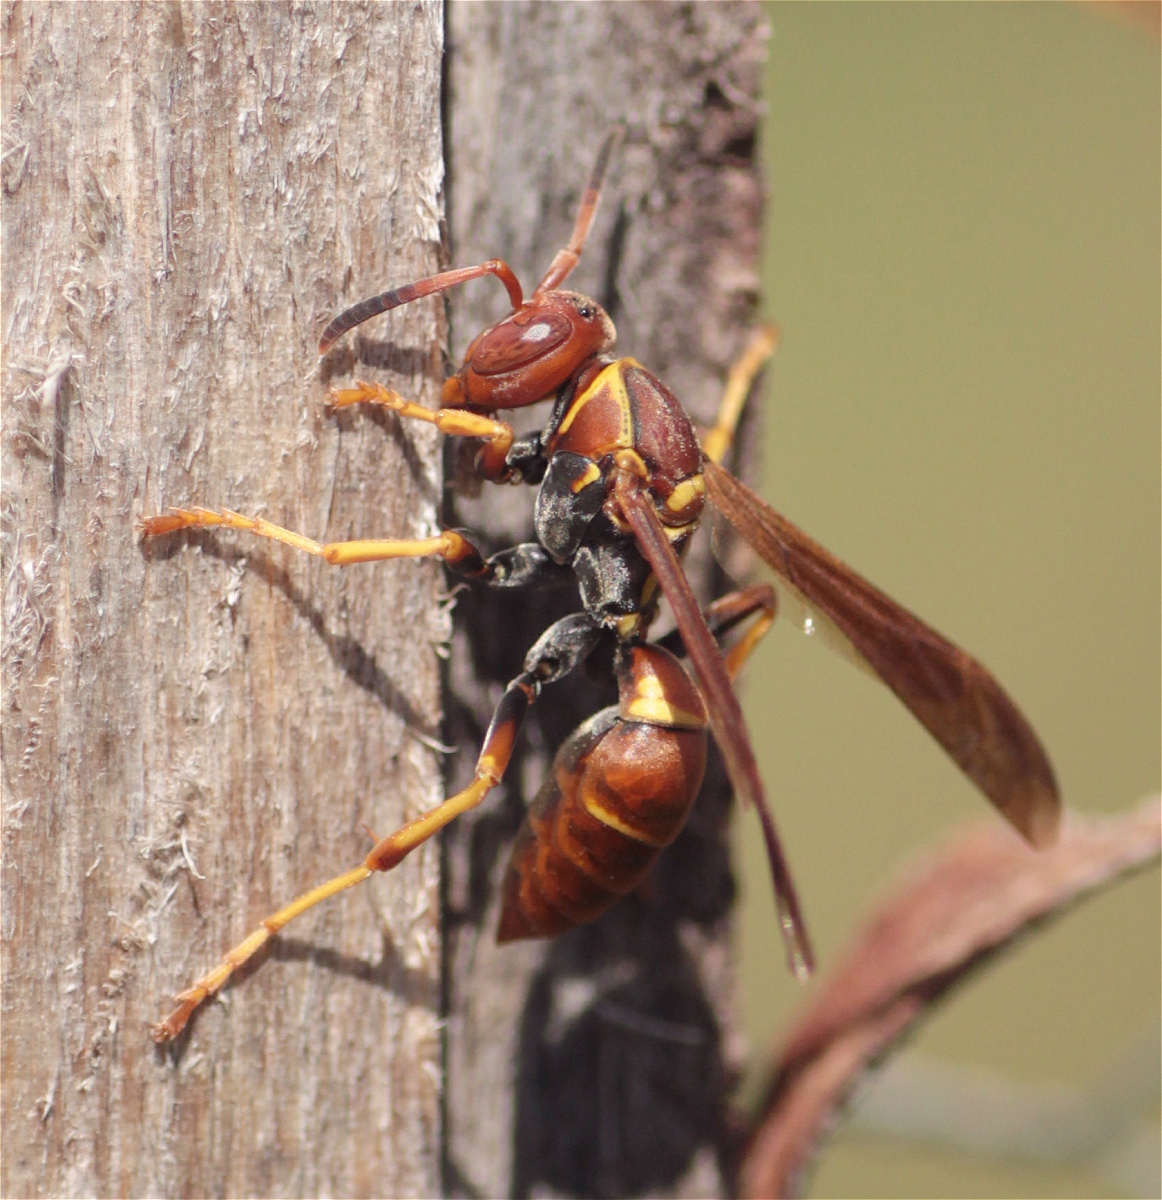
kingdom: Animalia
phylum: Arthropoda
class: Insecta
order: Hymenoptera
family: Eumenidae
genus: Polistes
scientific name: Polistes dorsalis
